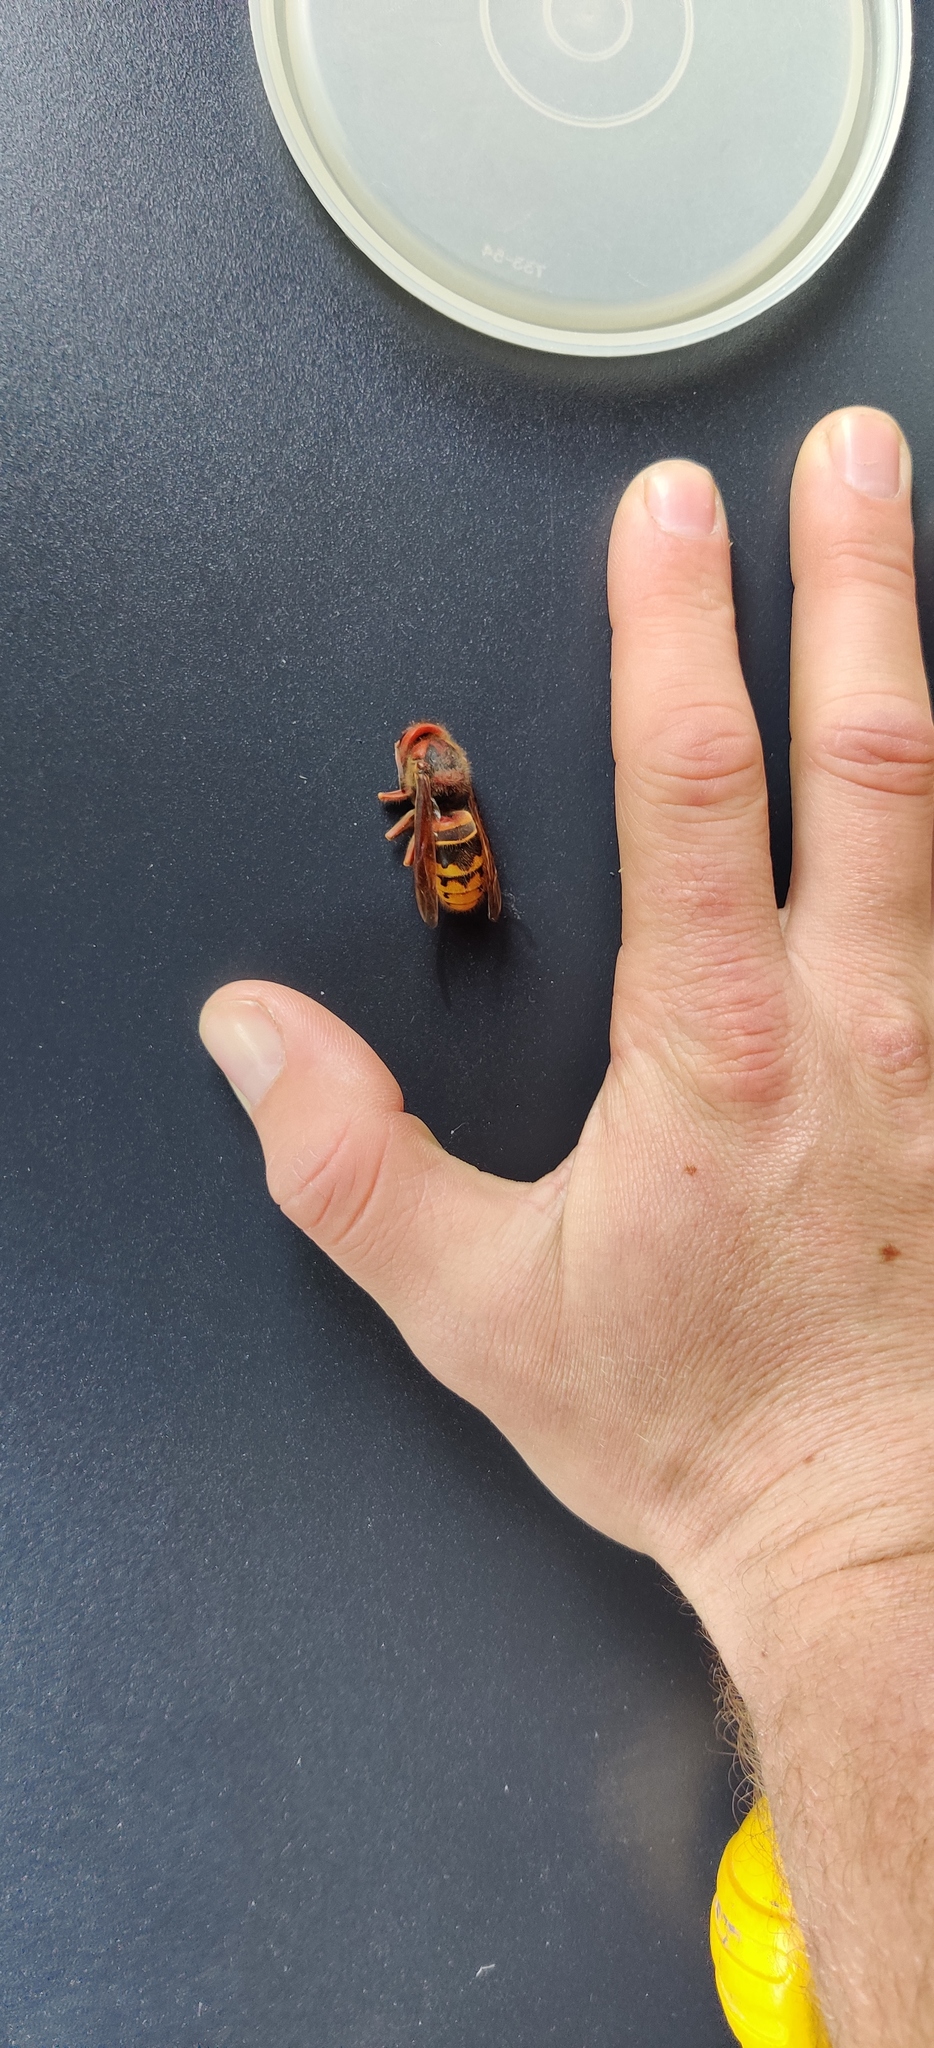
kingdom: Animalia
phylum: Arthropoda
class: Insecta
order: Hymenoptera
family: Vespidae
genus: Vespa
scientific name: Vespa crabro
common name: Hornet
